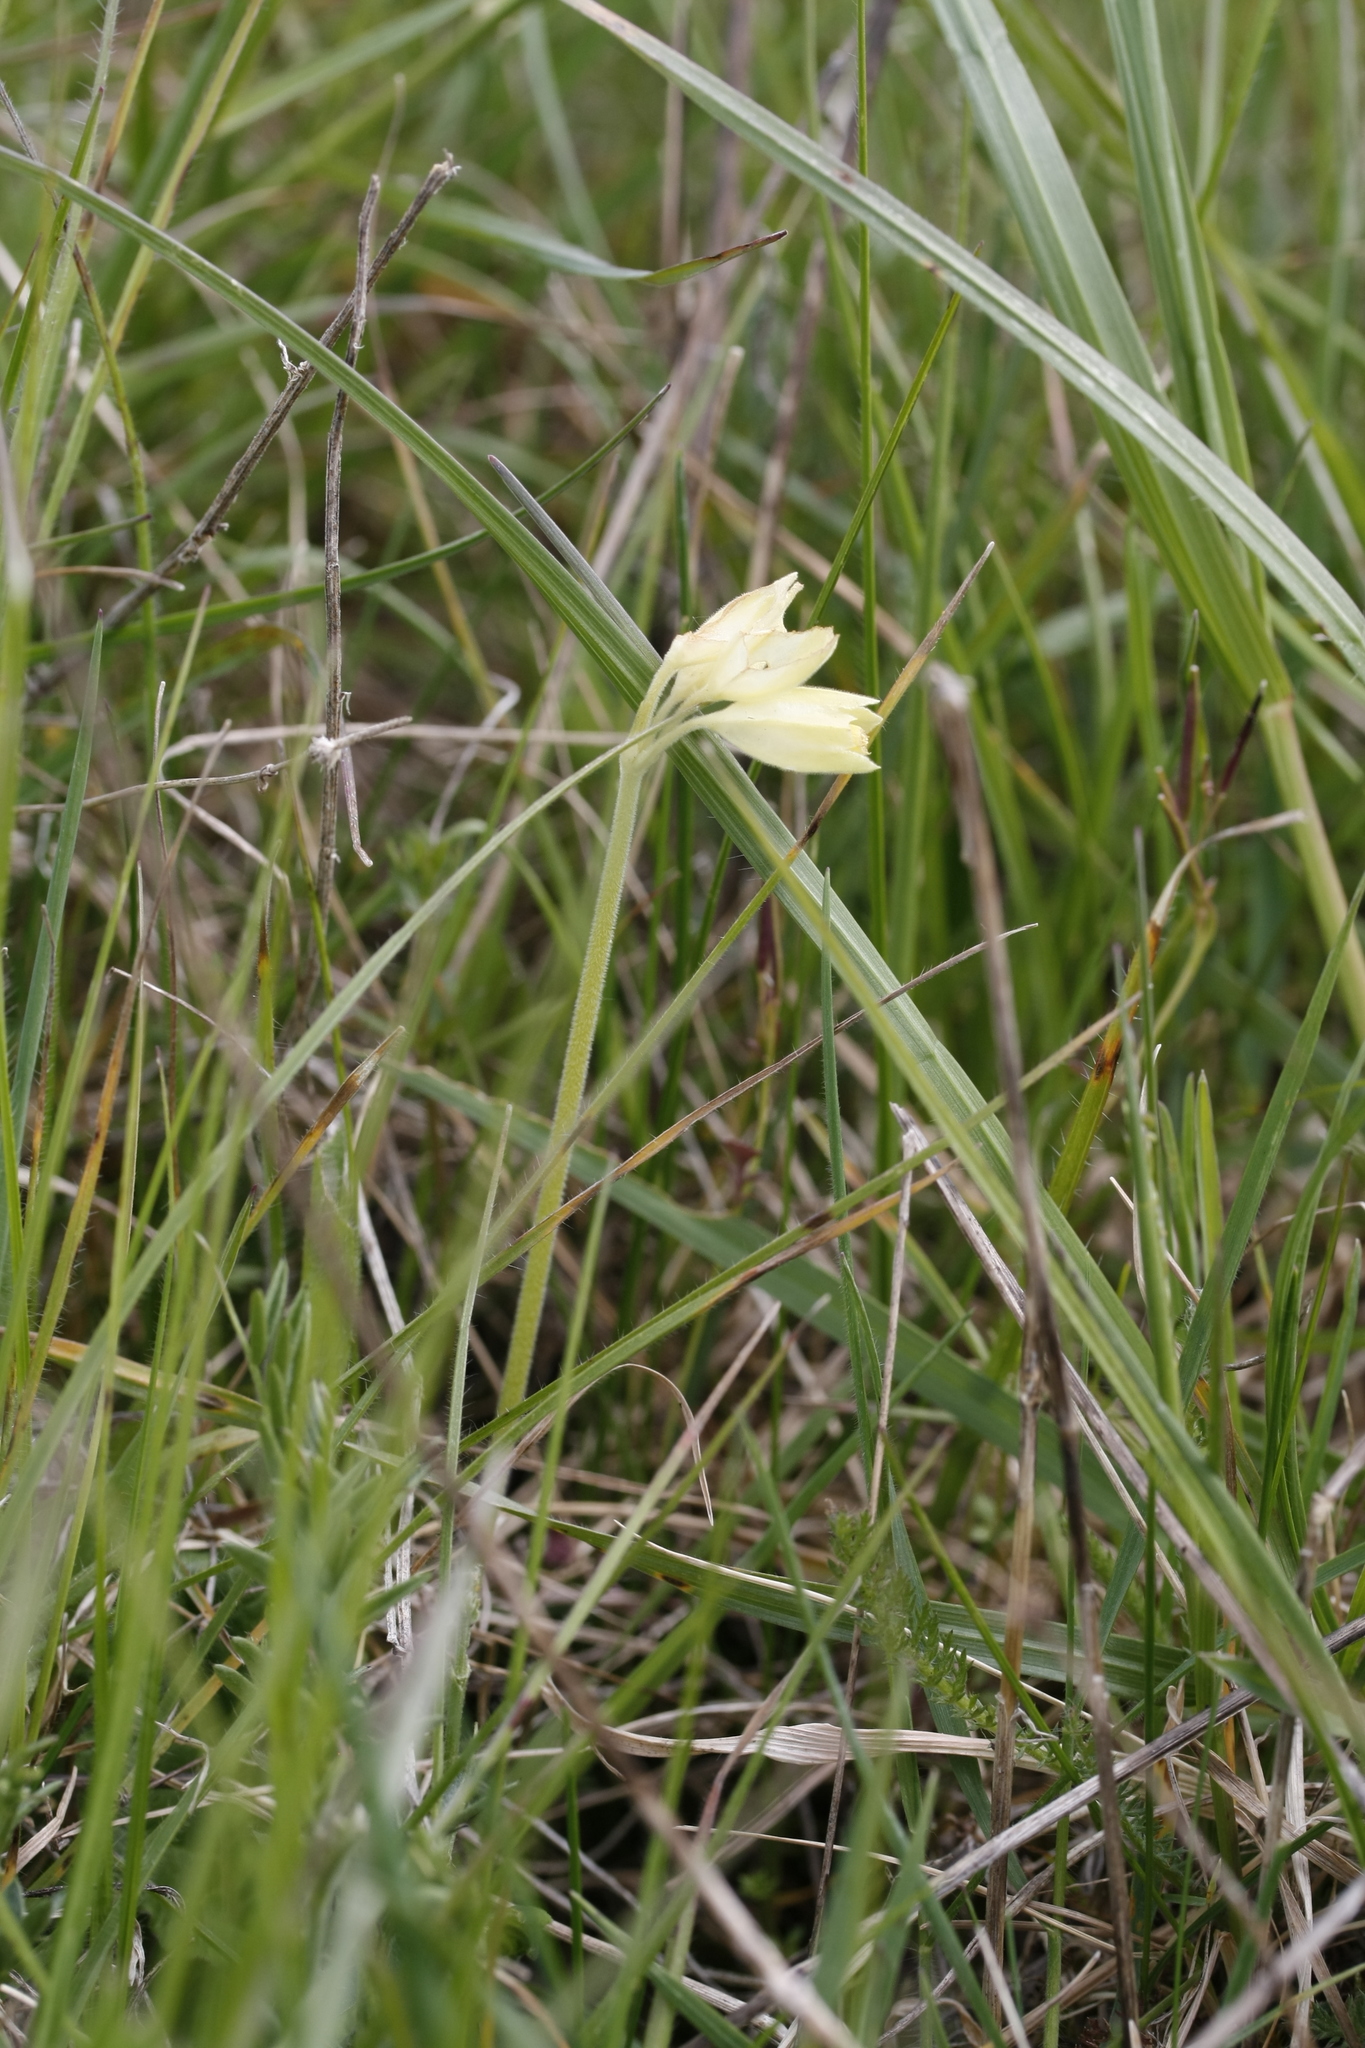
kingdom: Plantae
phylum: Tracheophyta
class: Magnoliopsida
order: Ericales
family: Primulaceae
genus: Primula
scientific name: Primula veris
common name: Cowslip
